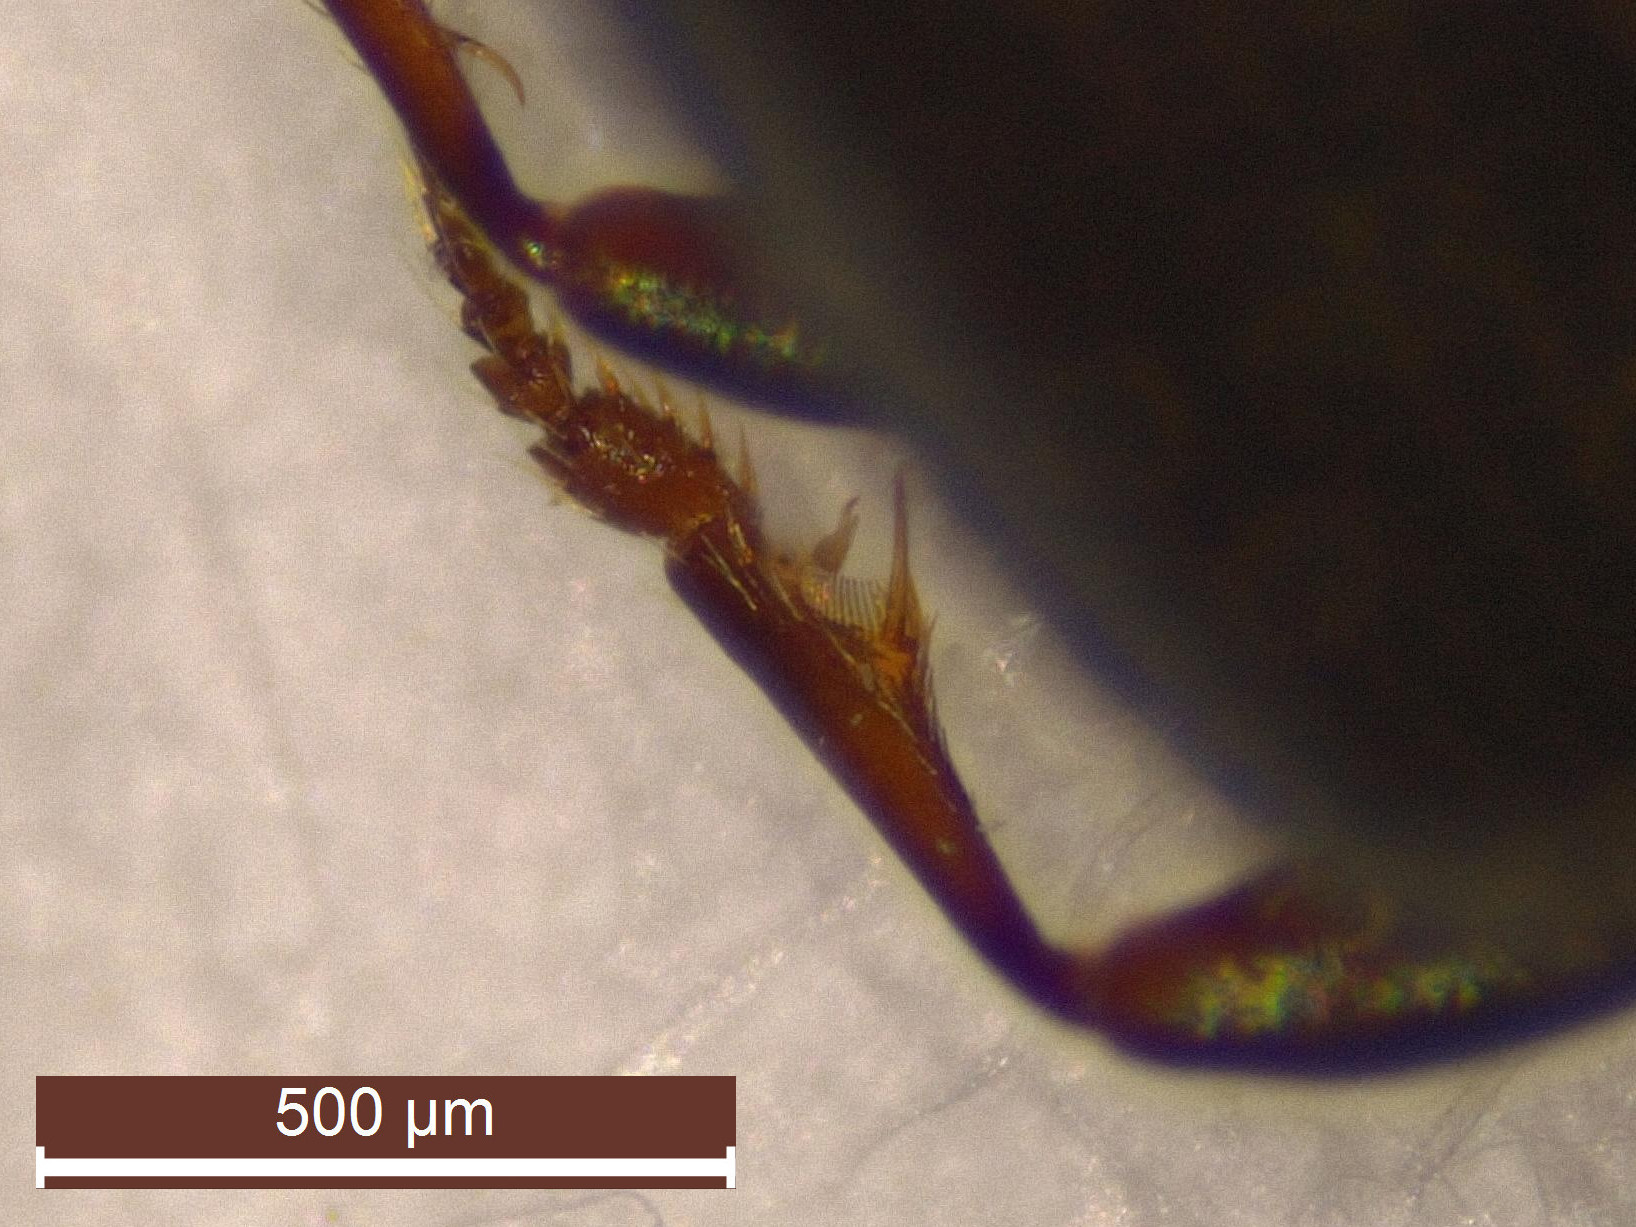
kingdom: Animalia
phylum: Arthropoda
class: Insecta
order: Coleoptera
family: Carabidae
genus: Bembidion
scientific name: Bembidion normannum
